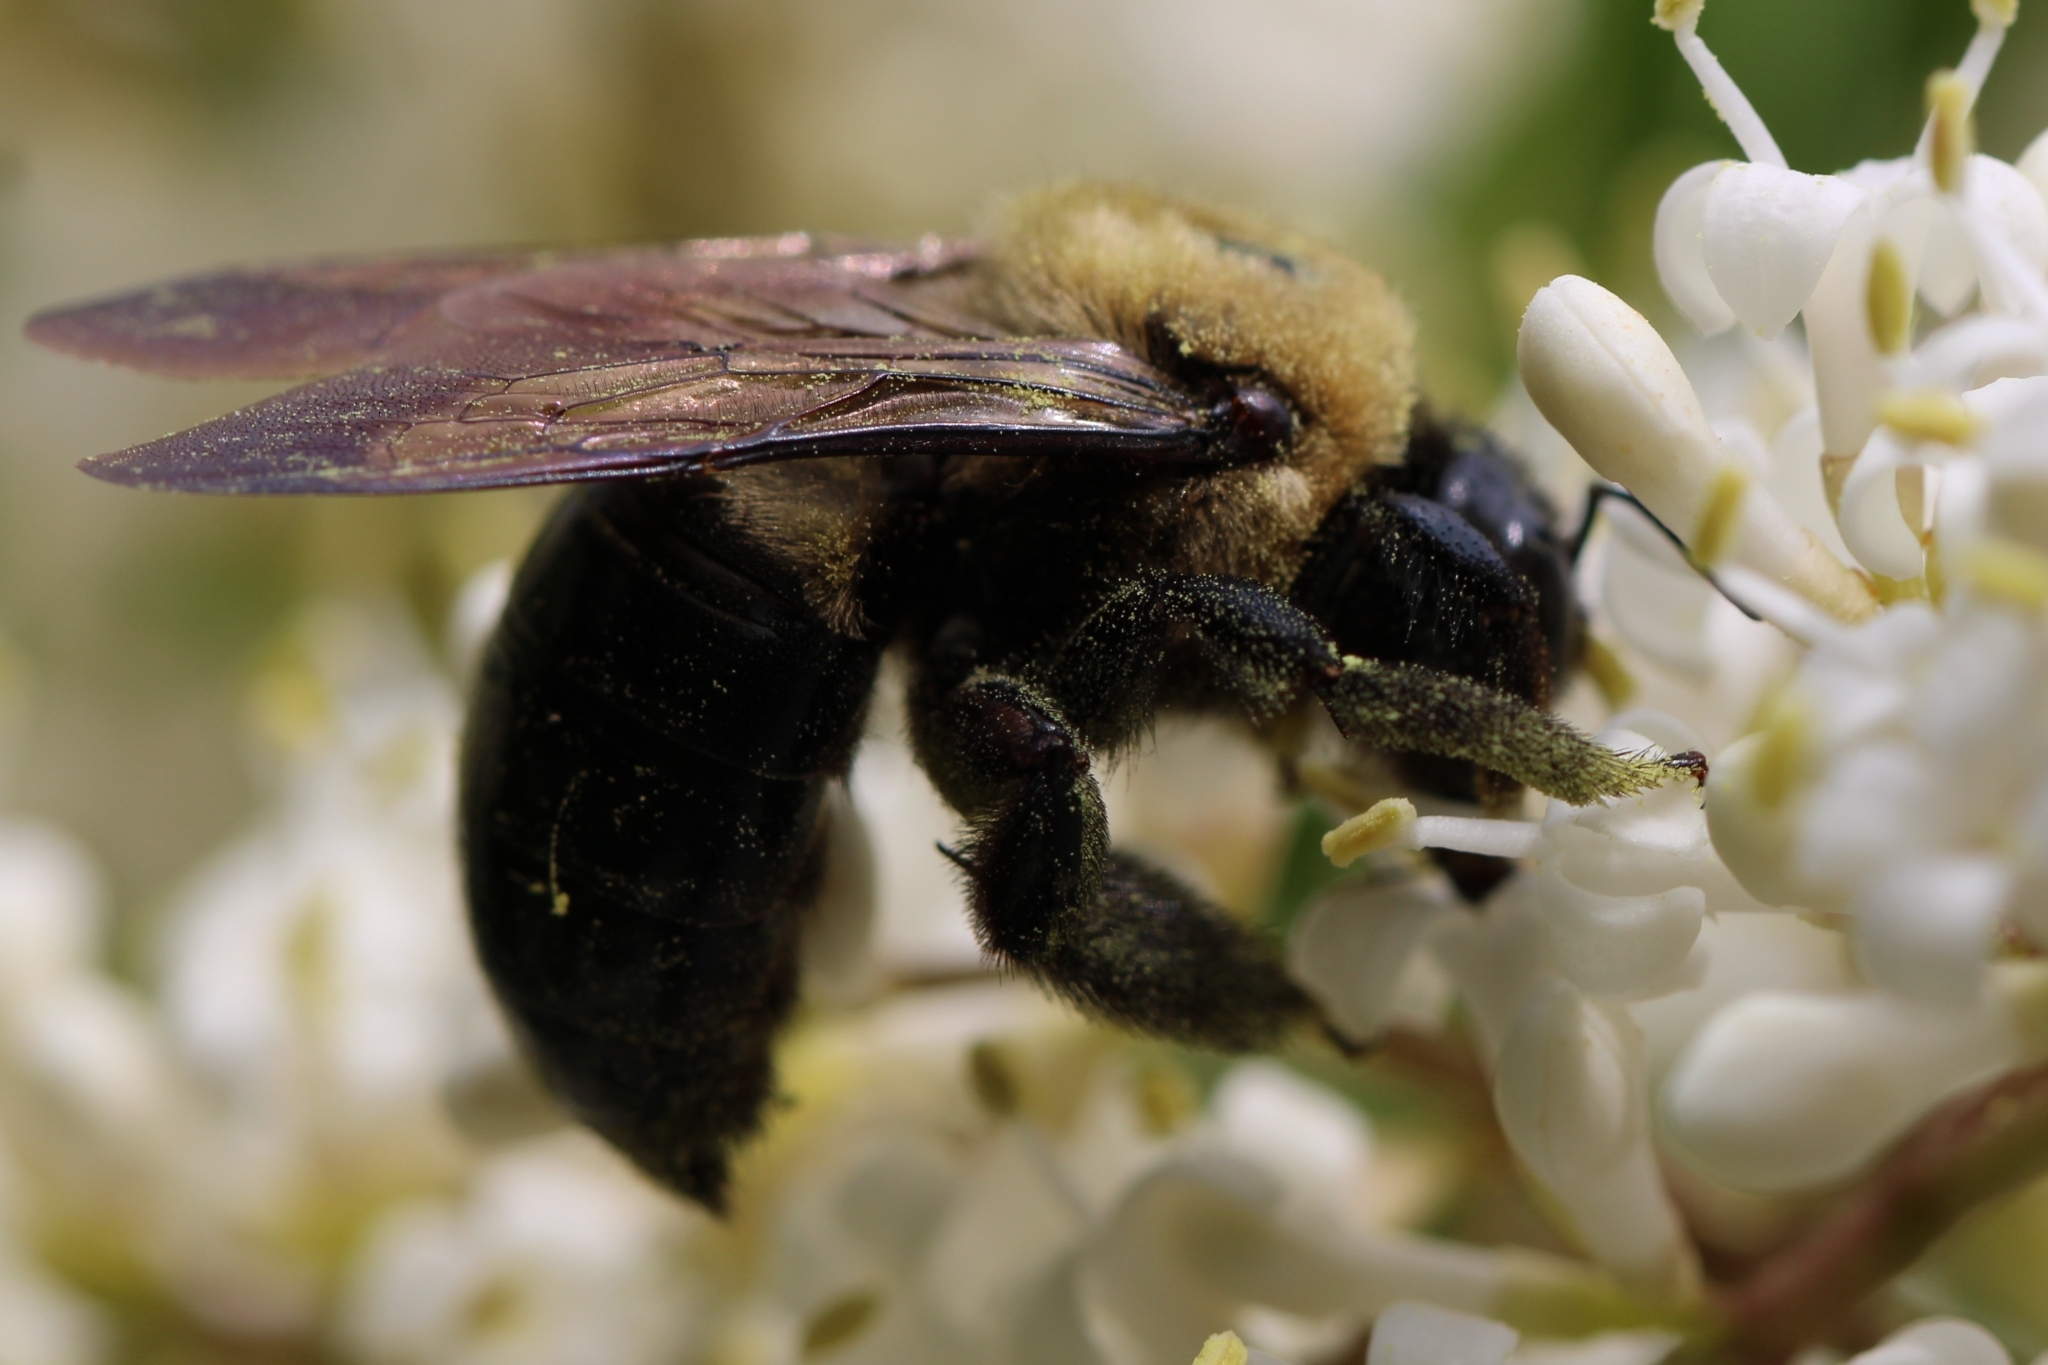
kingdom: Animalia
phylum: Arthropoda
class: Insecta
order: Hymenoptera
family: Apidae
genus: Xylocopa
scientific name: Xylocopa virginica
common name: Carpenter bee
